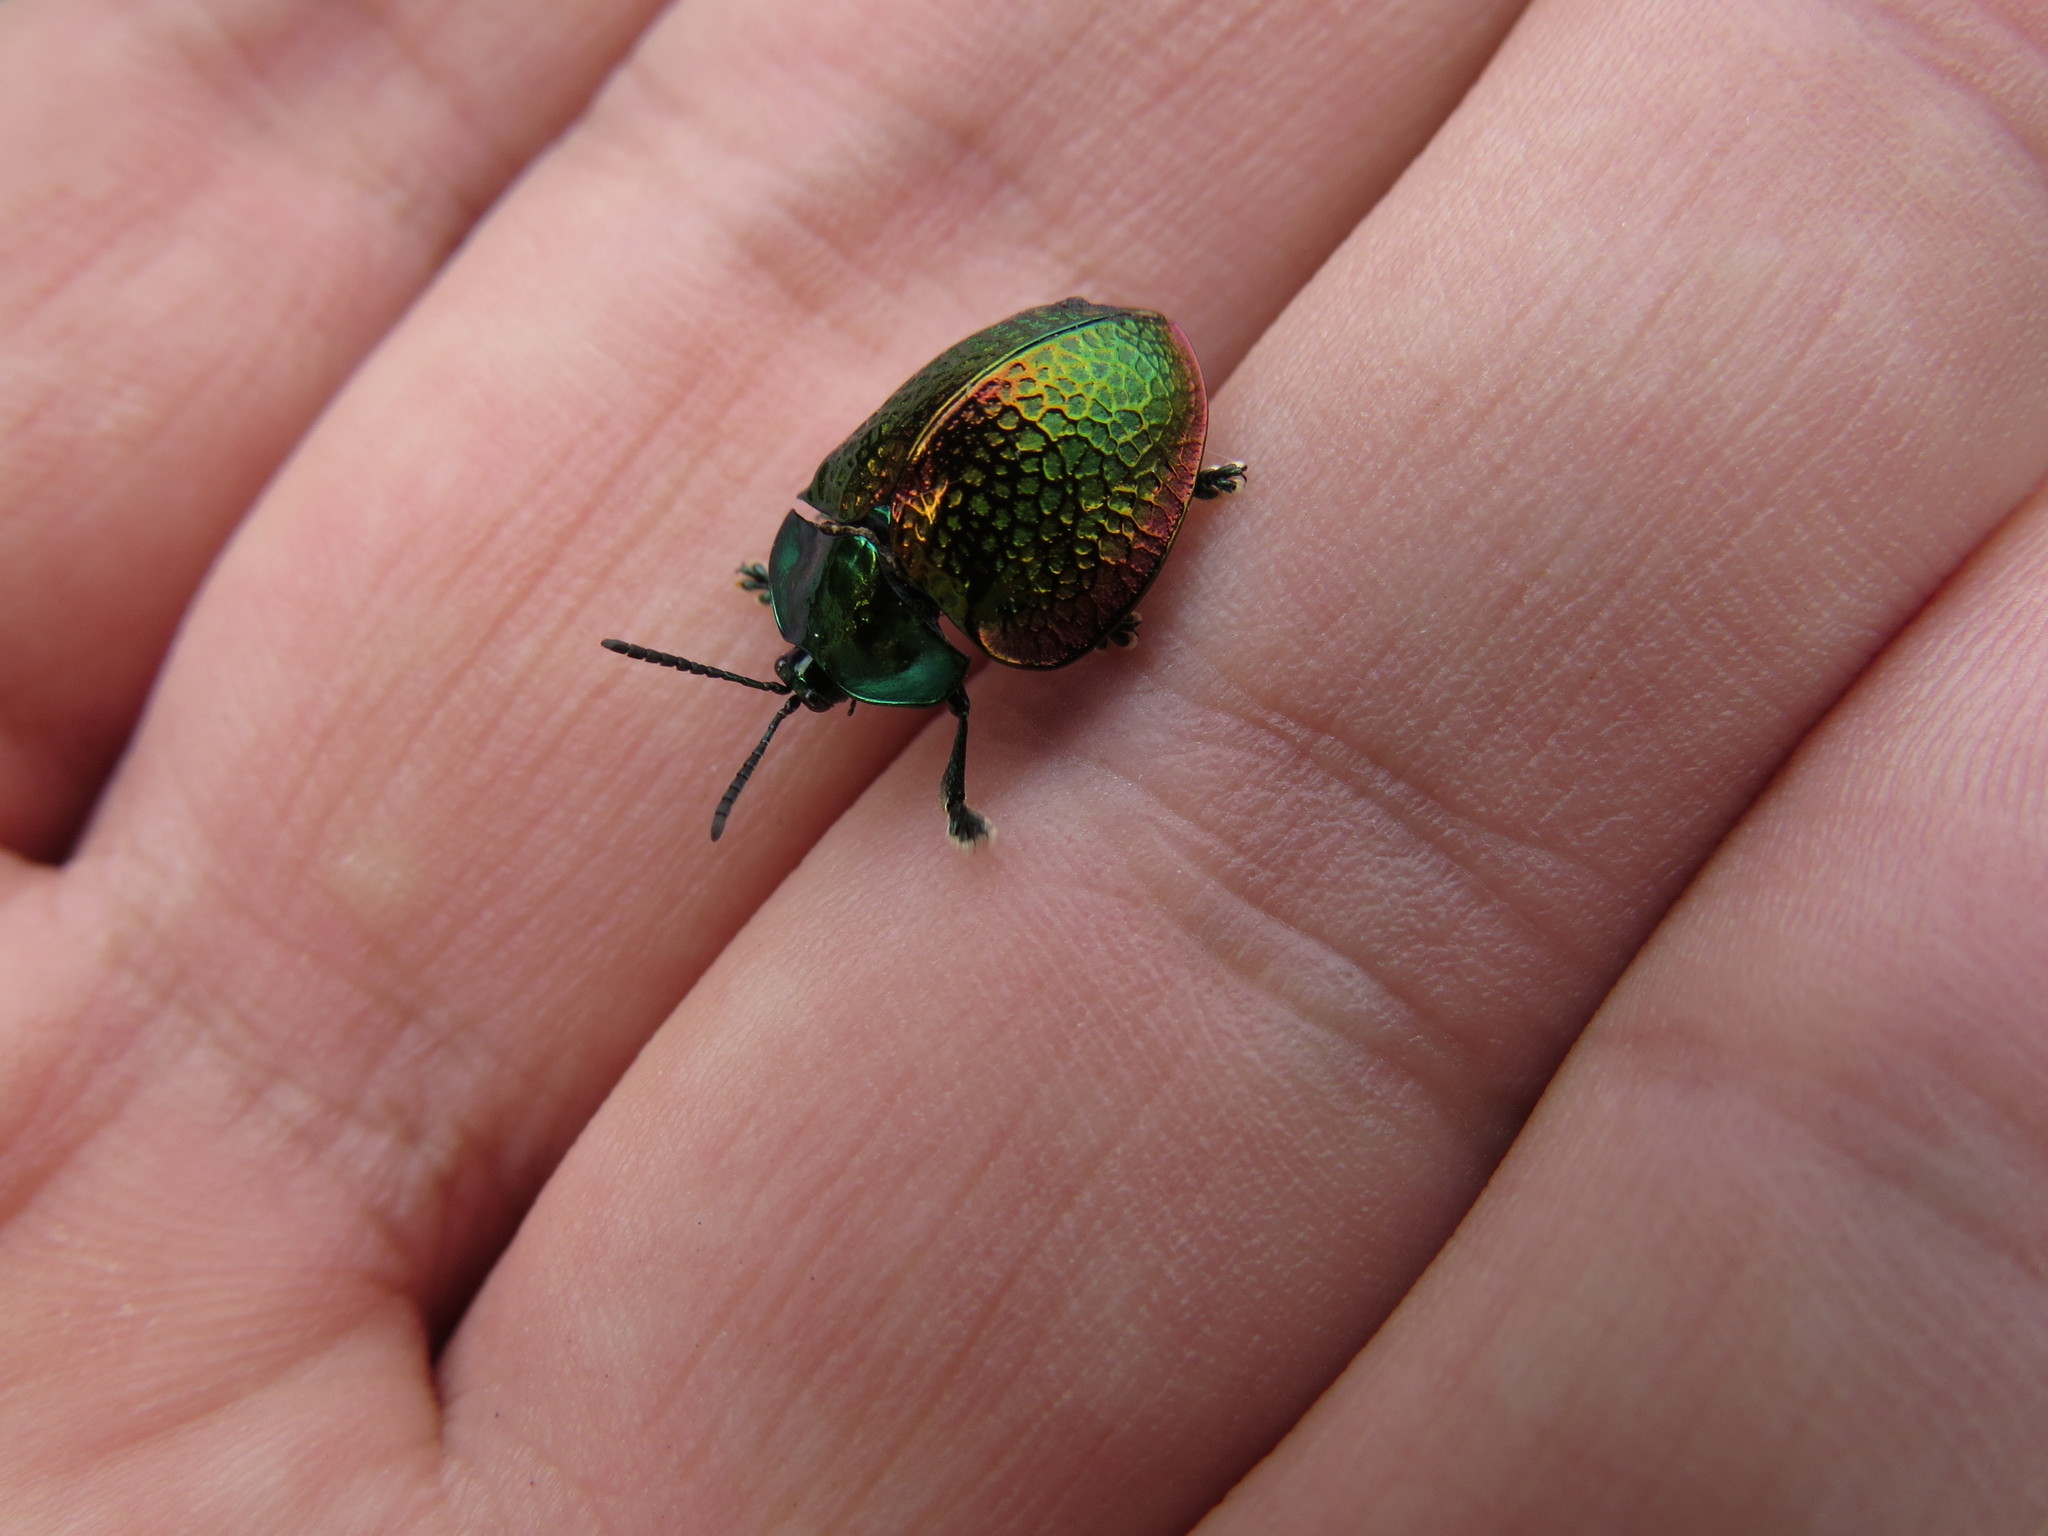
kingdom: Animalia
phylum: Arthropoda
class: Insecta
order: Coleoptera
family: Chrysomelidae
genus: Stolas
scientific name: Stolas festiva
